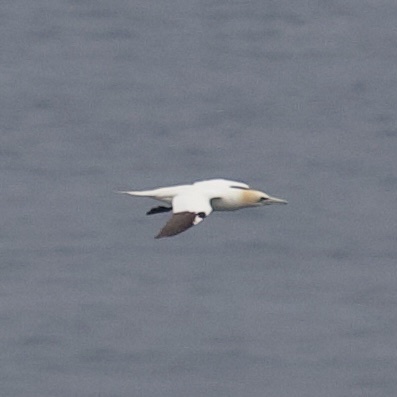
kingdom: Animalia
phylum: Chordata
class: Aves
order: Suliformes
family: Sulidae
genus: Morus
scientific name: Morus bassanus
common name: Northern gannet
